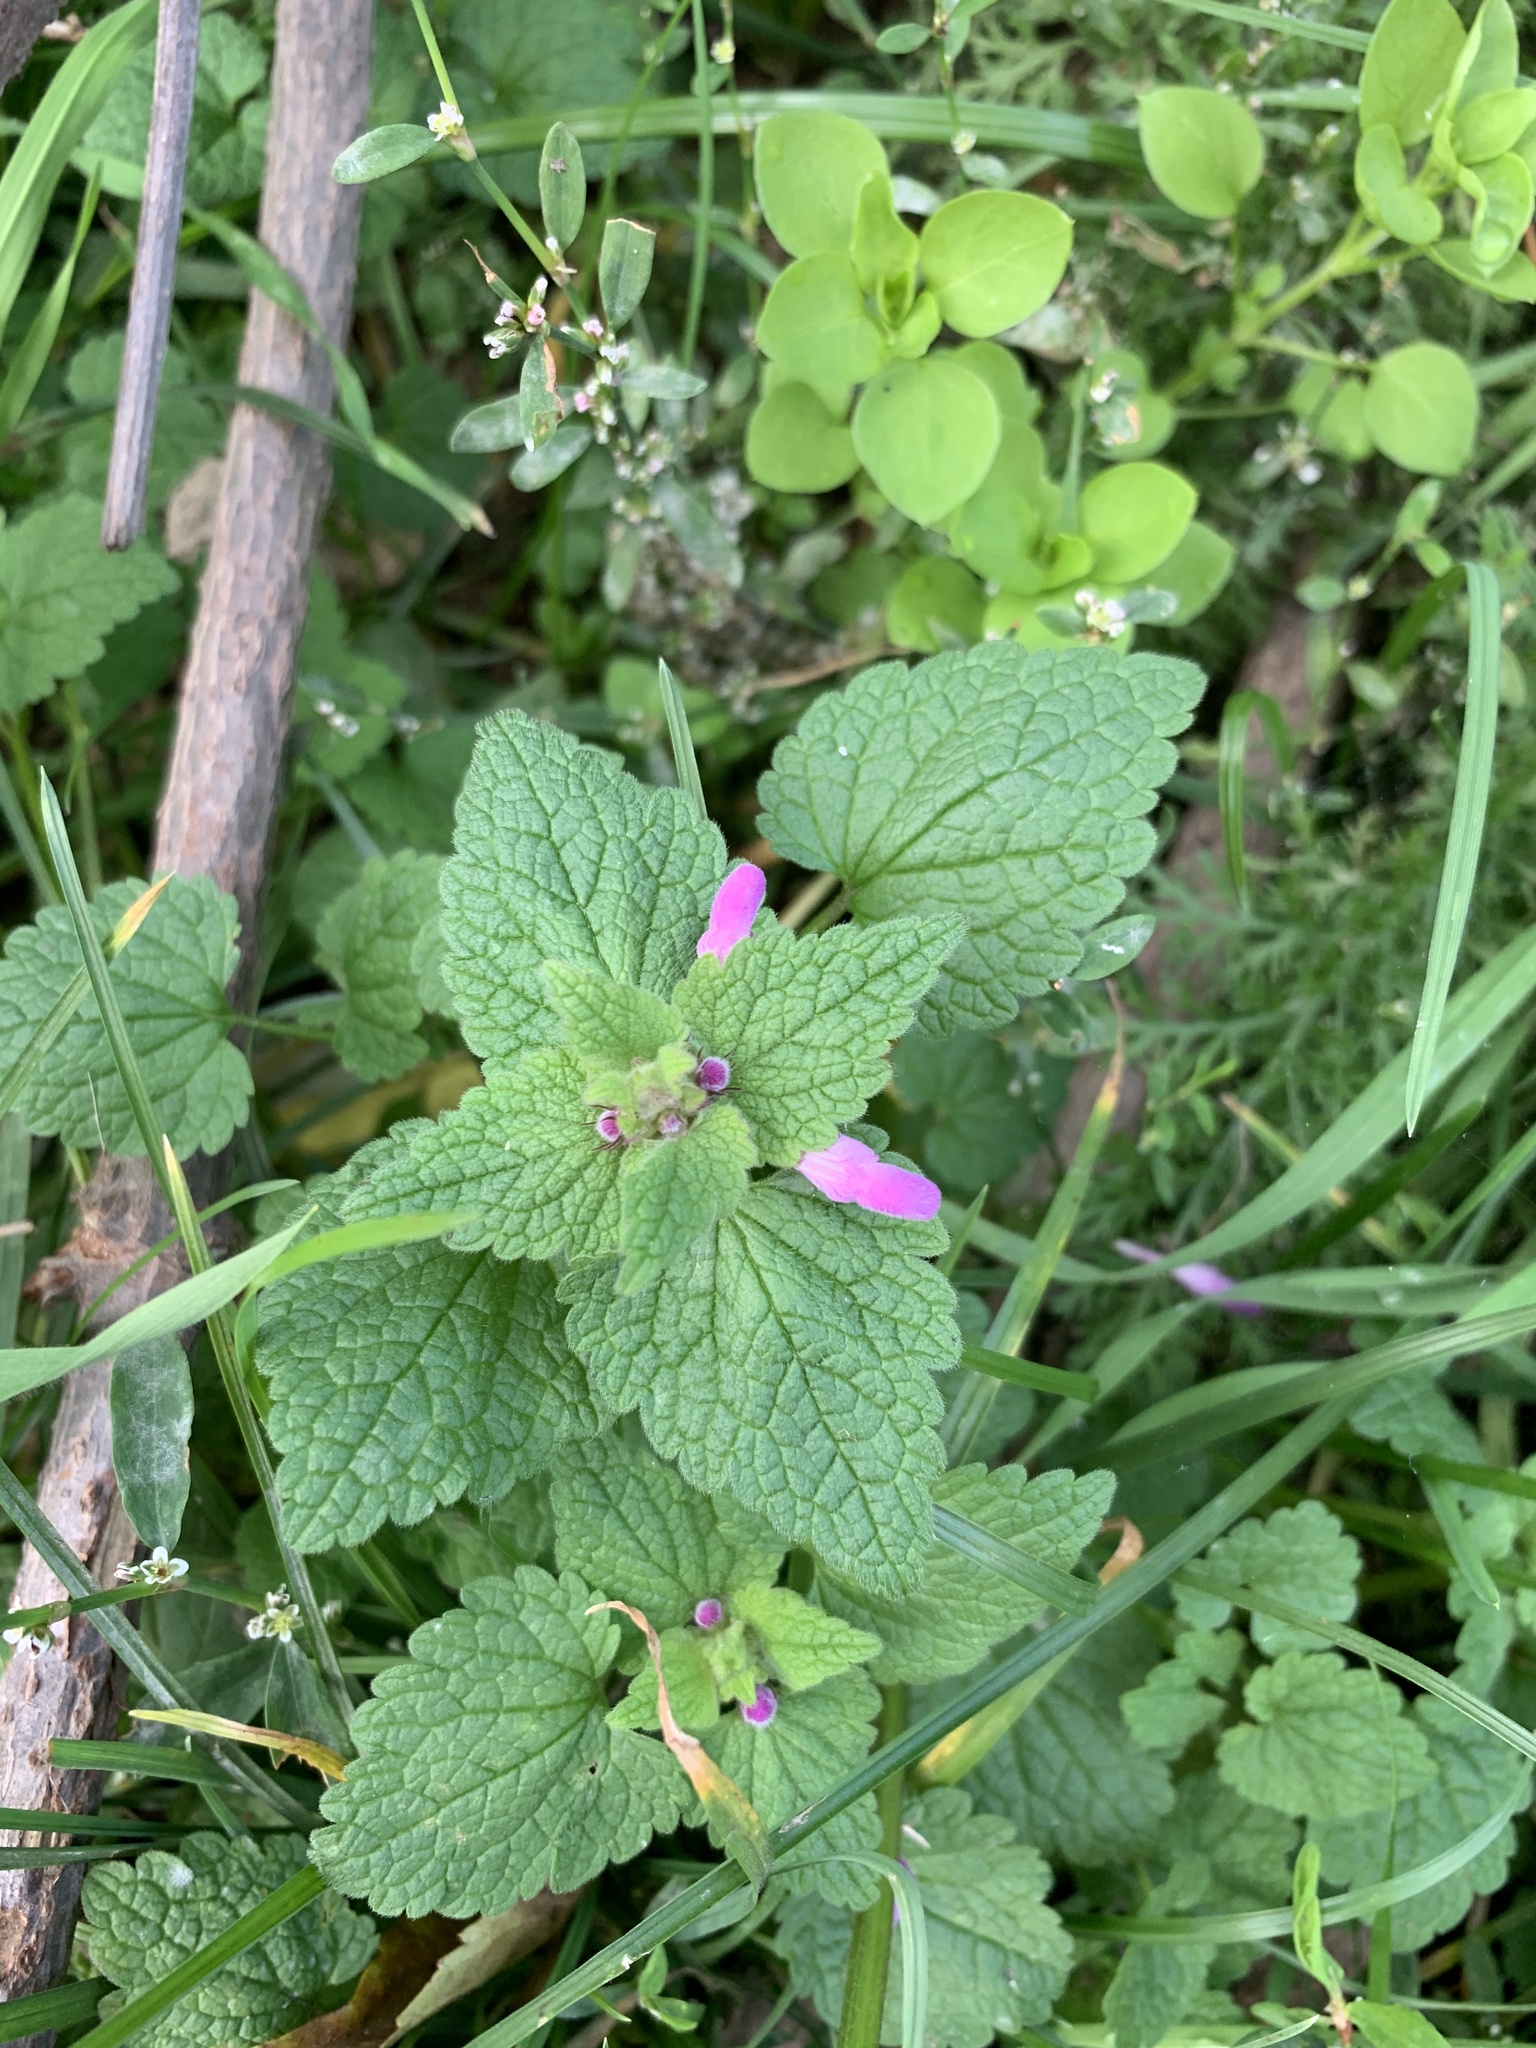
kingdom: Plantae
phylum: Tracheophyta
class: Magnoliopsida
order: Lamiales
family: Lamiaceae
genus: Lamium
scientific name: Lamium purpureum
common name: Red dead-nettle
